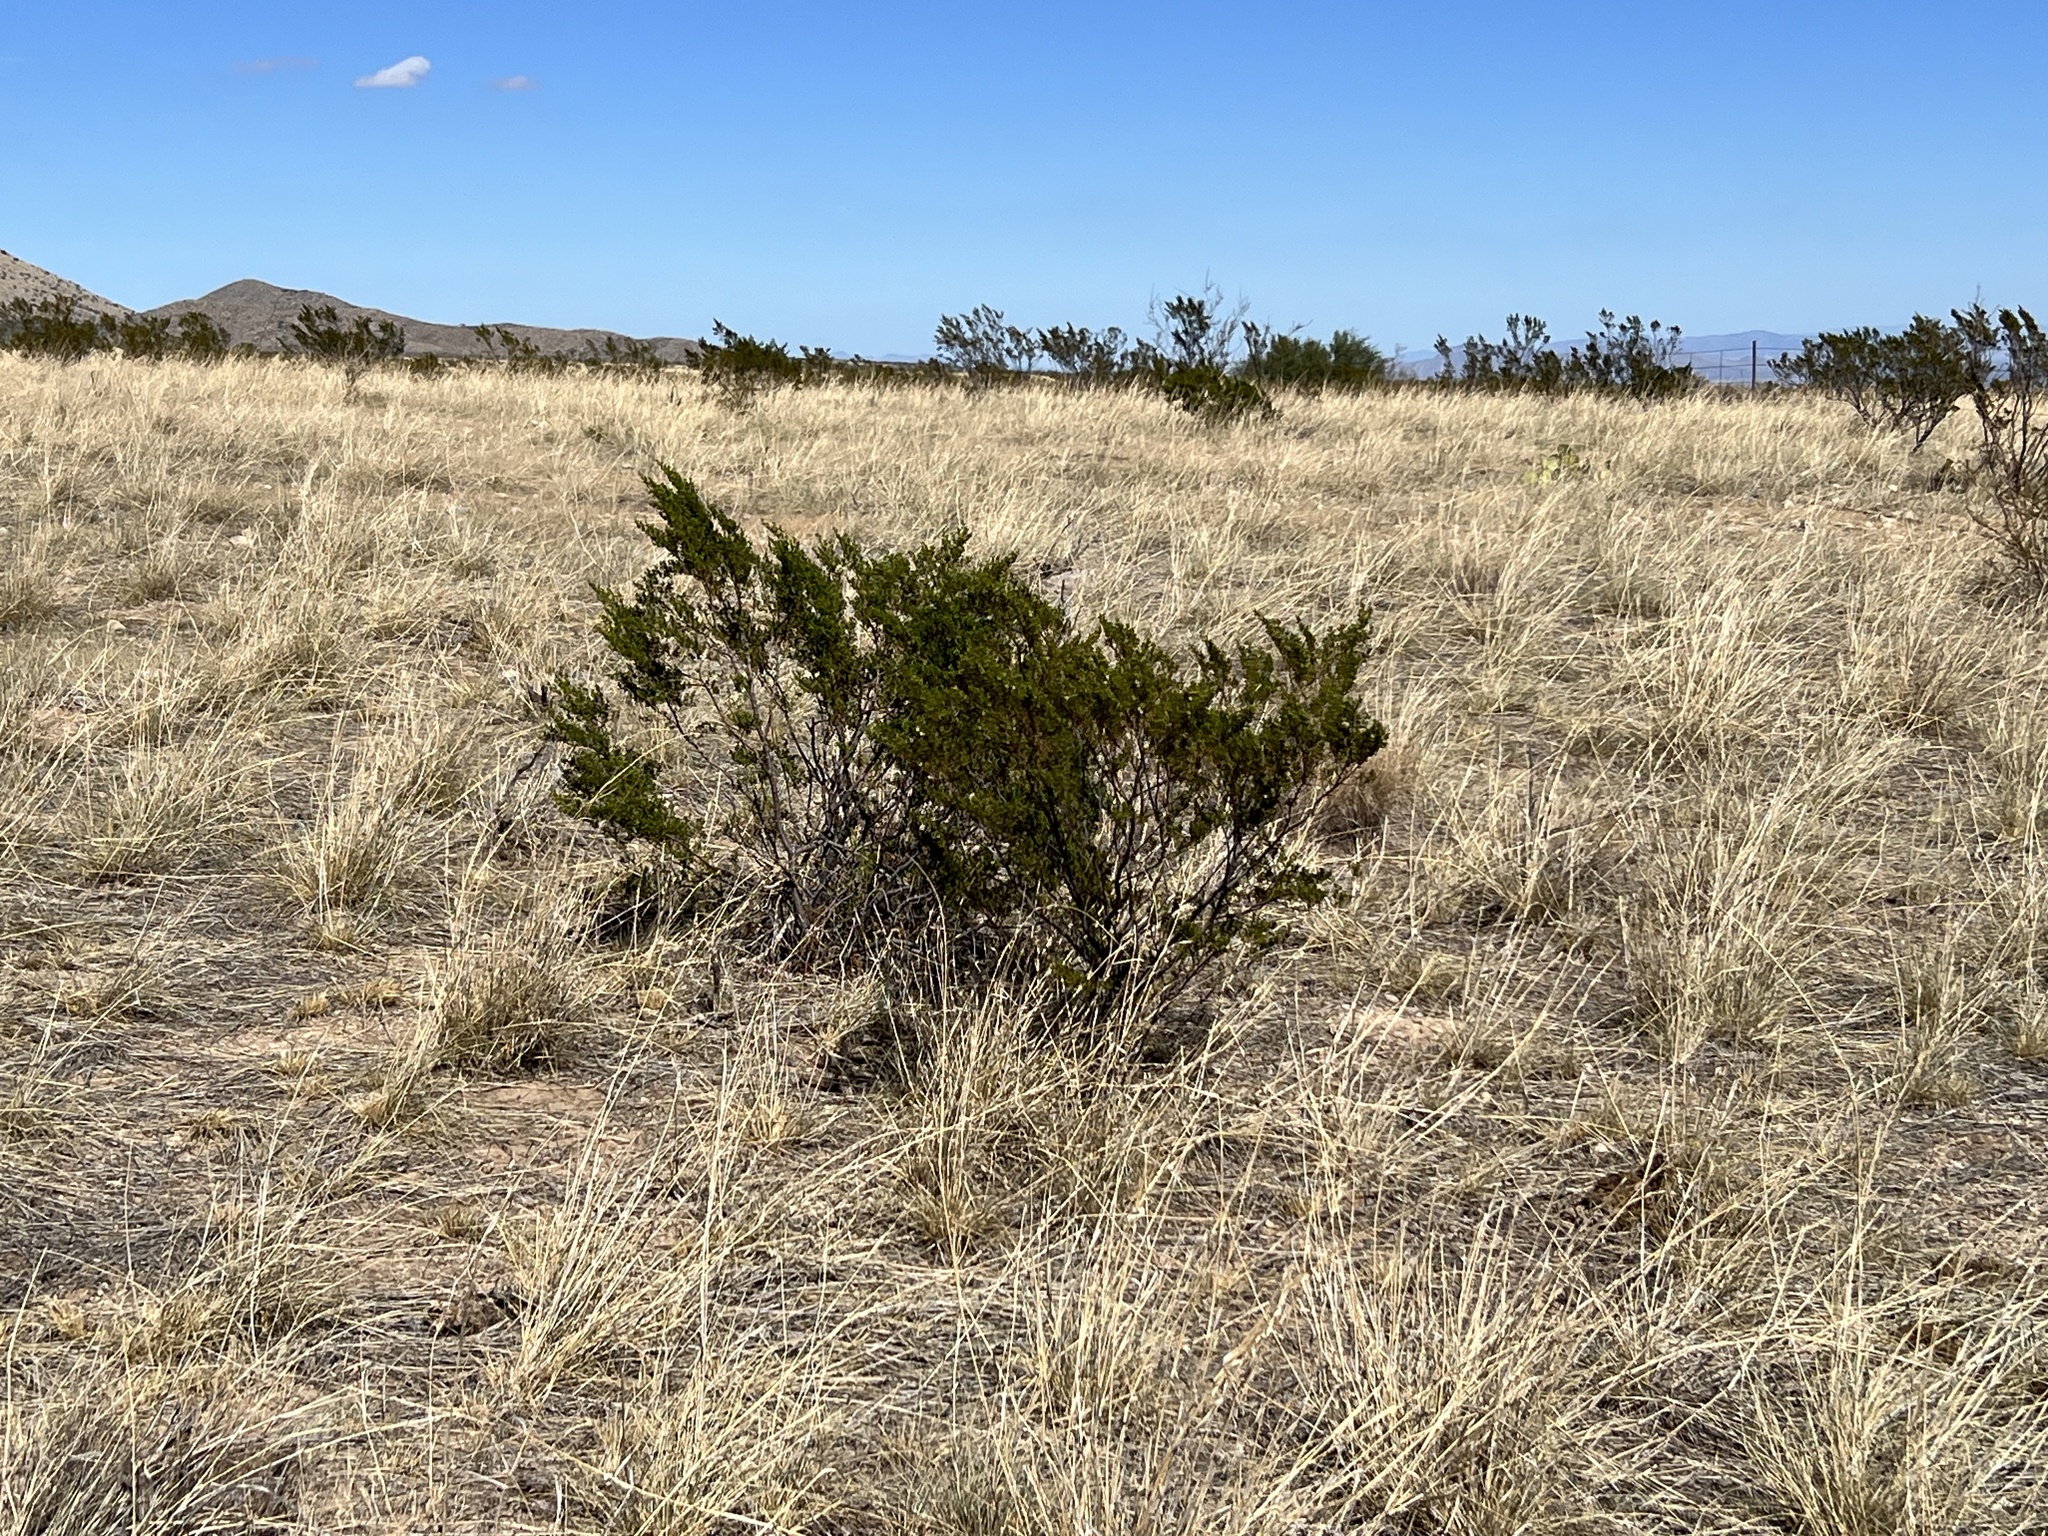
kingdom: Plantae
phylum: Tracheophyta
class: Magnoliopsida
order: Zygophyllales
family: Zygophyllaceae
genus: Larrea
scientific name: Larrea tridentata
